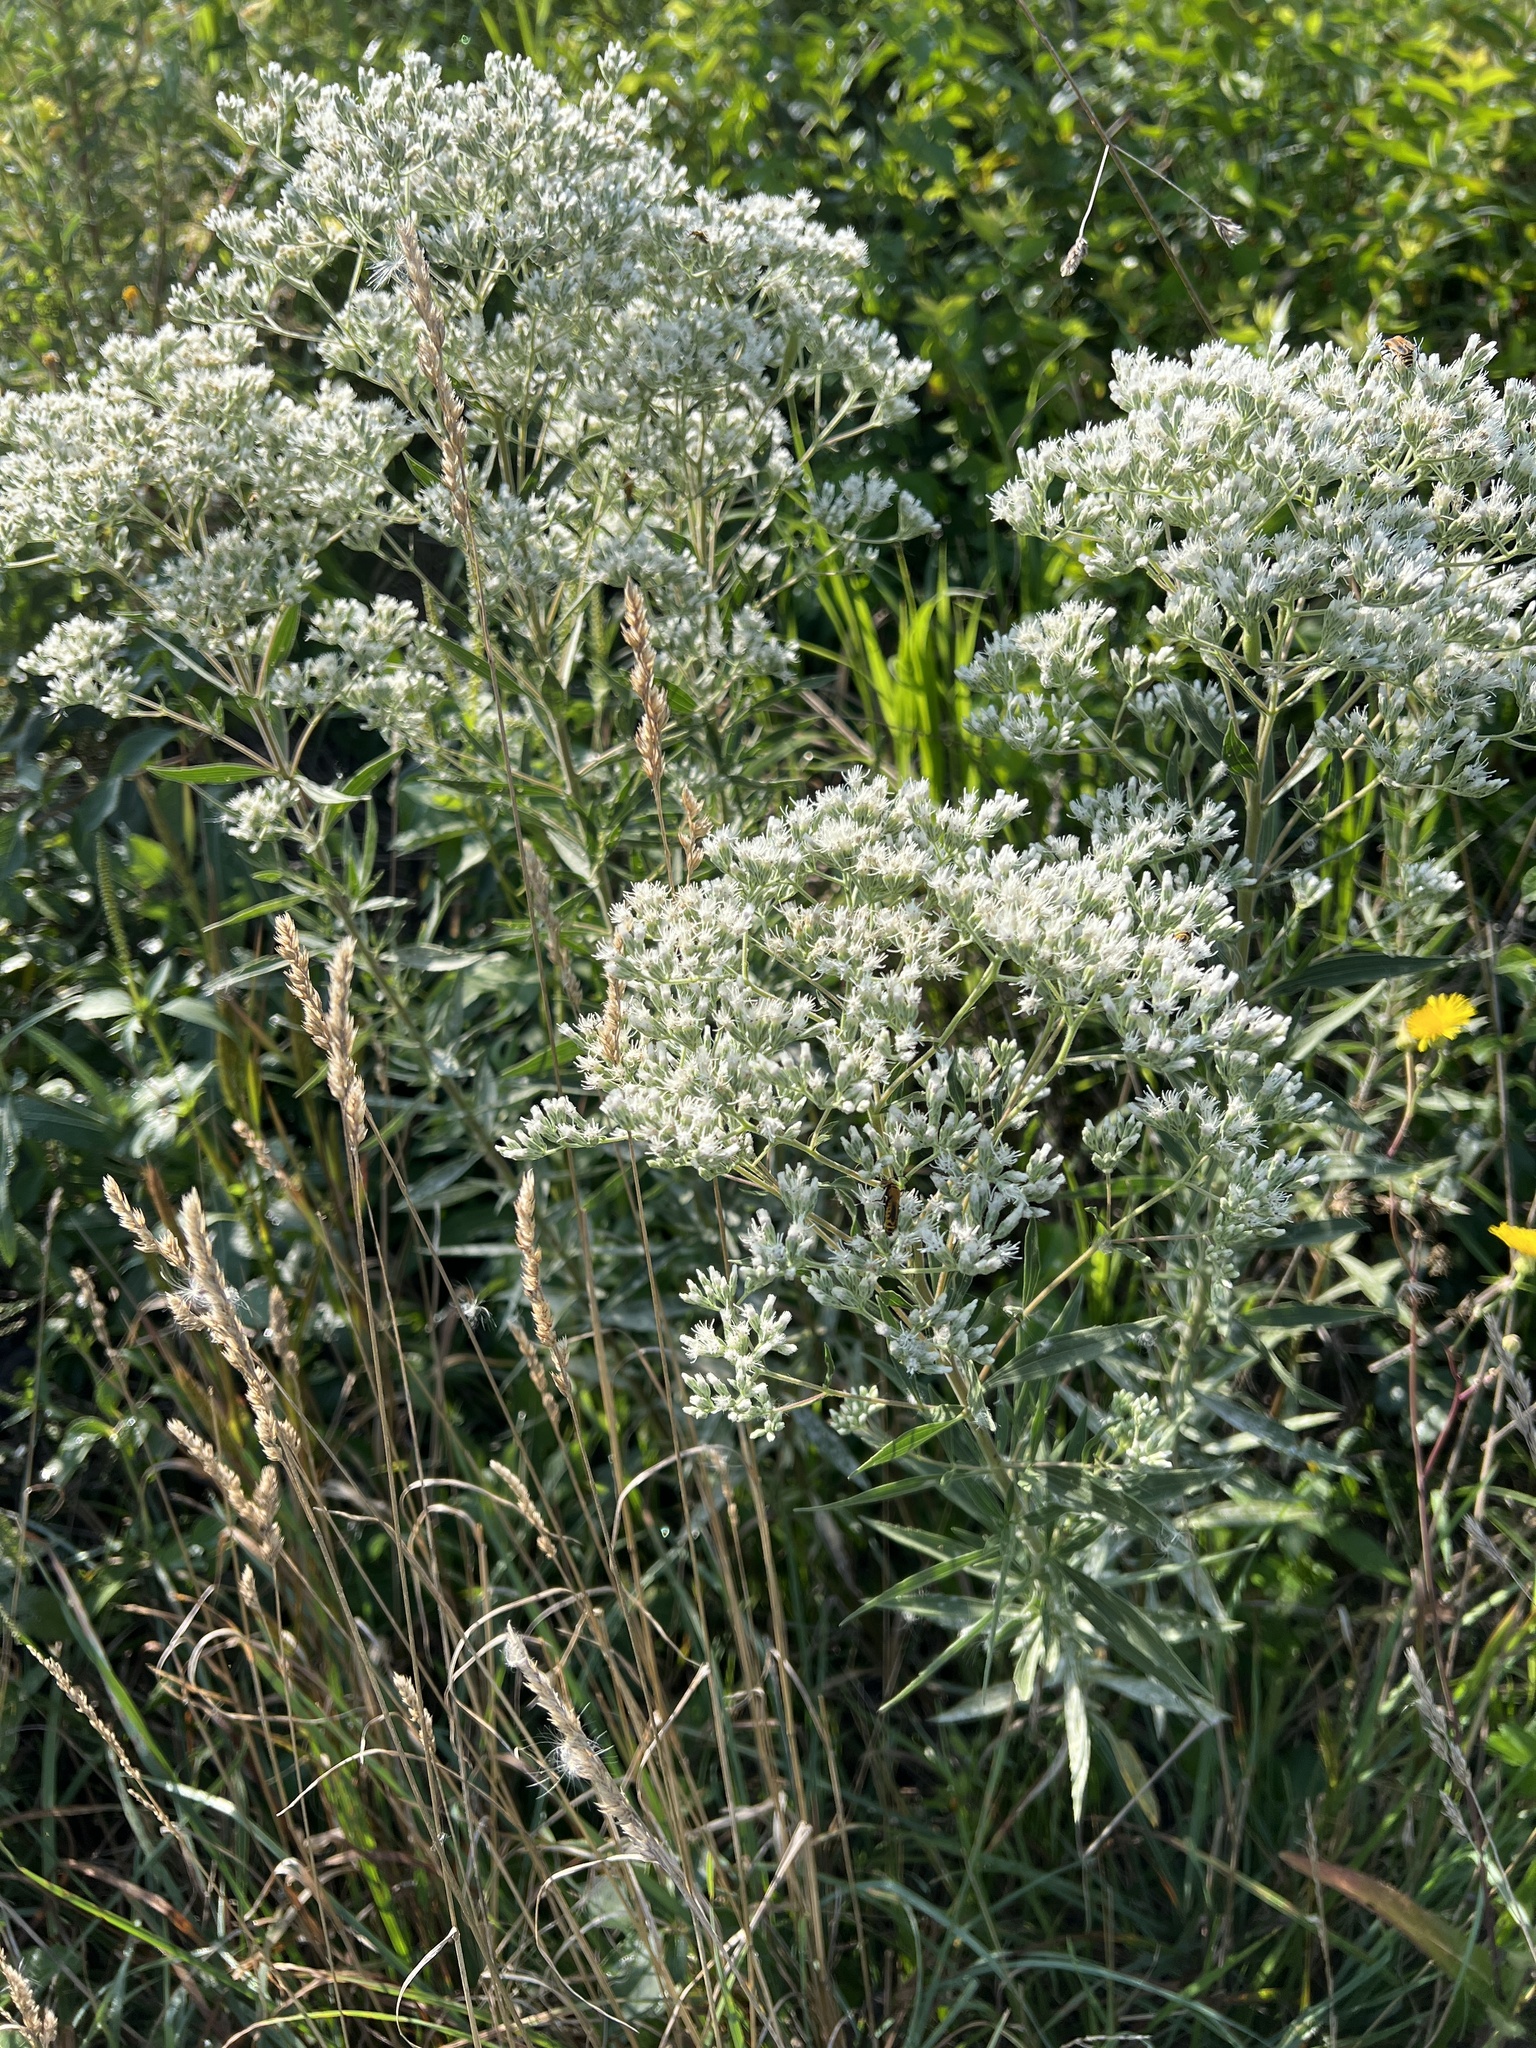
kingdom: Plantae
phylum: Tracheophyta
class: Magnoliopsida
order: Asterales
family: Asteraceae
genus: Eupatorium
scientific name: Eupatorium altissimum
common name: Tall thoroughwort
